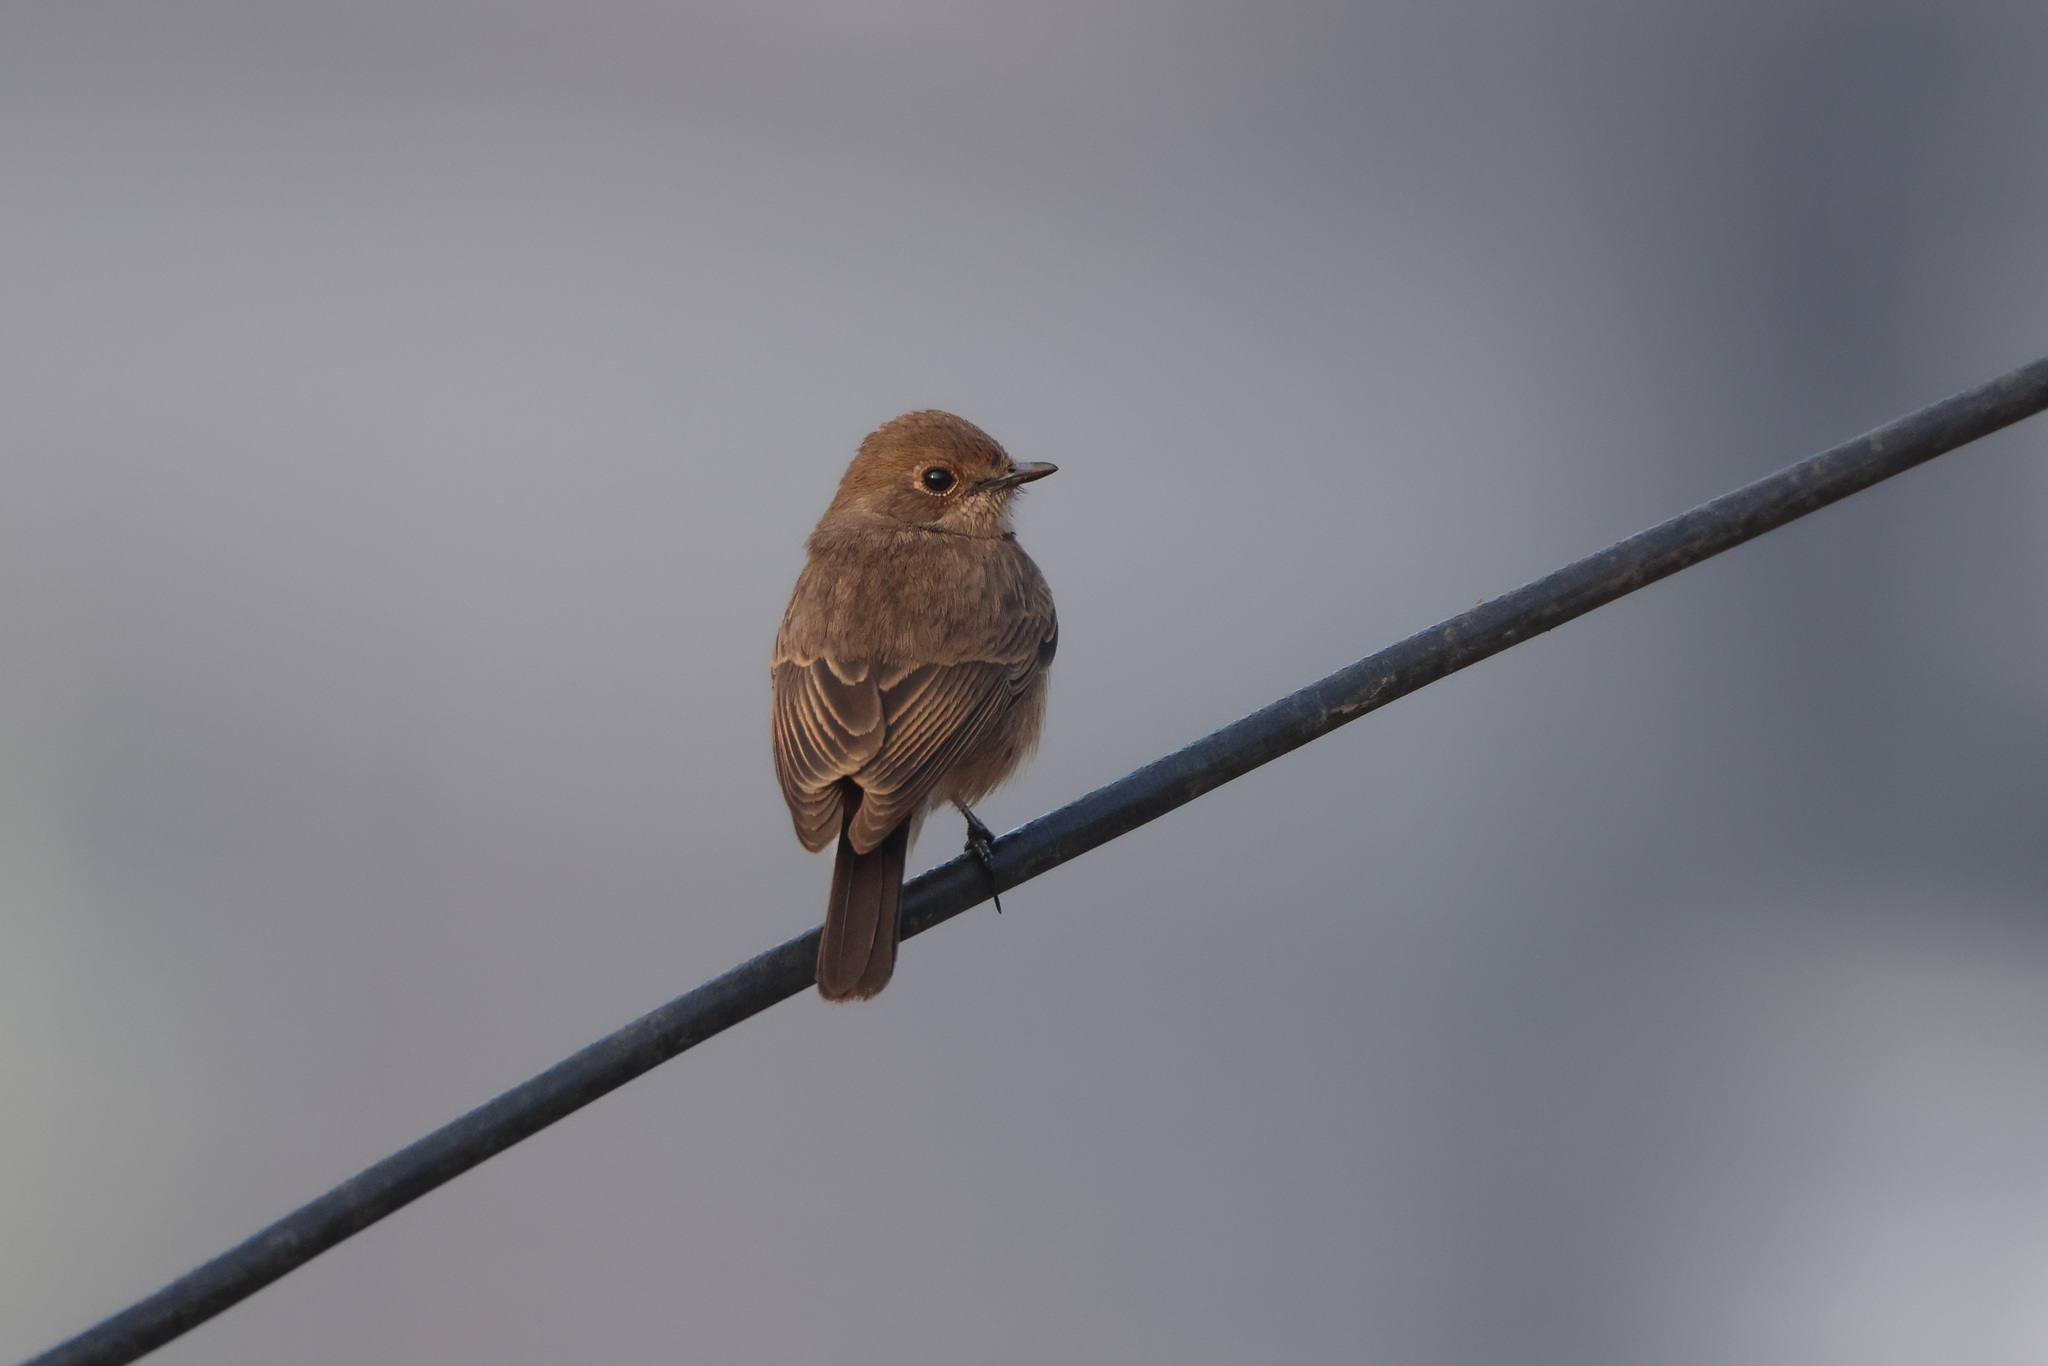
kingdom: Animalia
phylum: Chordata
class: Aves
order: Passeriformes
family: Muscicapidae
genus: Saxicola
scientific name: Saxicola caprata
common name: Pied bush chat
